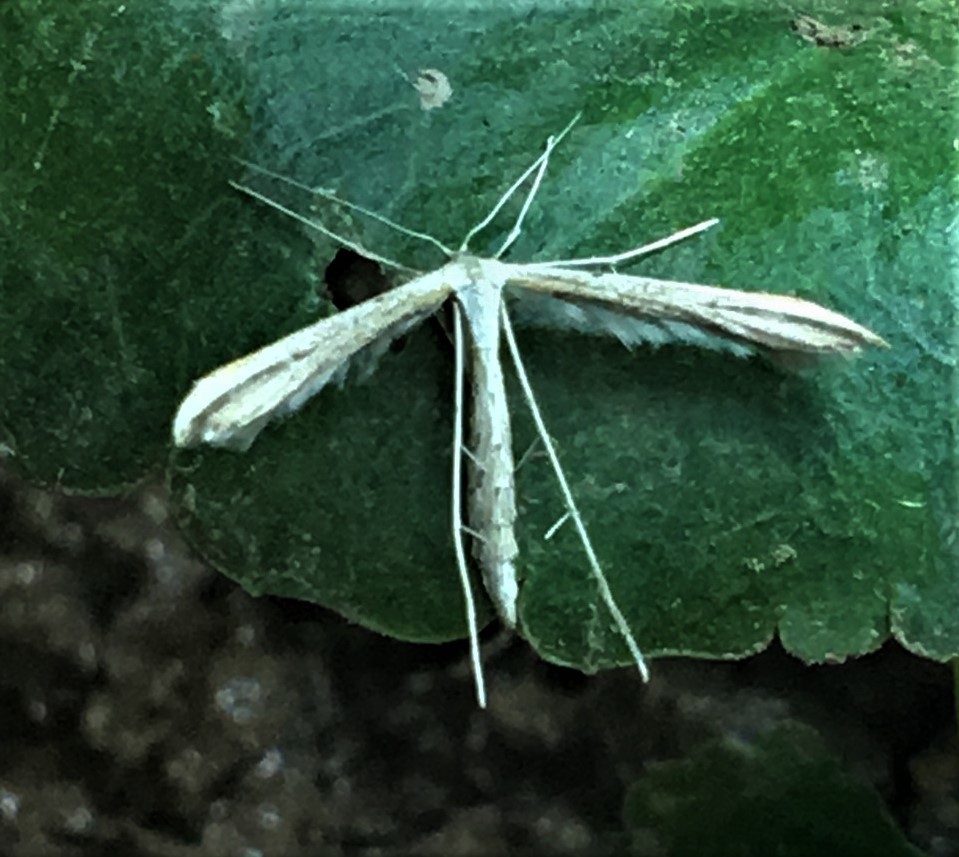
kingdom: Animalia
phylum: Arthropoda
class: Insecta
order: Lepidoptera
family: Pterophoridae
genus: Emmelina
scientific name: Emmelina monodactyla
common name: Common plume
